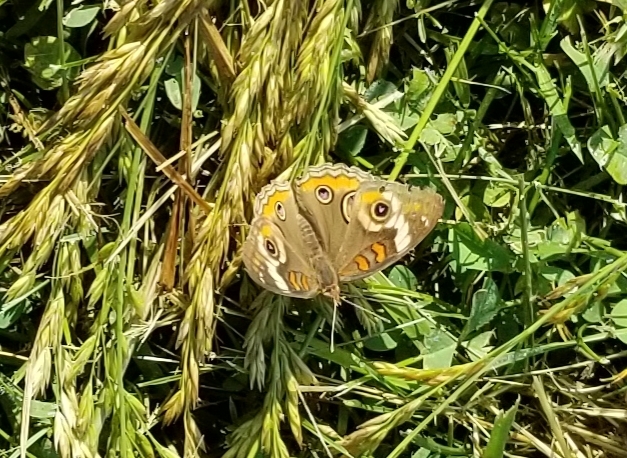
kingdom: Animalia
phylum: Arthropoda
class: Insecta
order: Lepidoptera
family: Nymphalidae
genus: Junonia
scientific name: Junonia coenia
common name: Common buckeye
